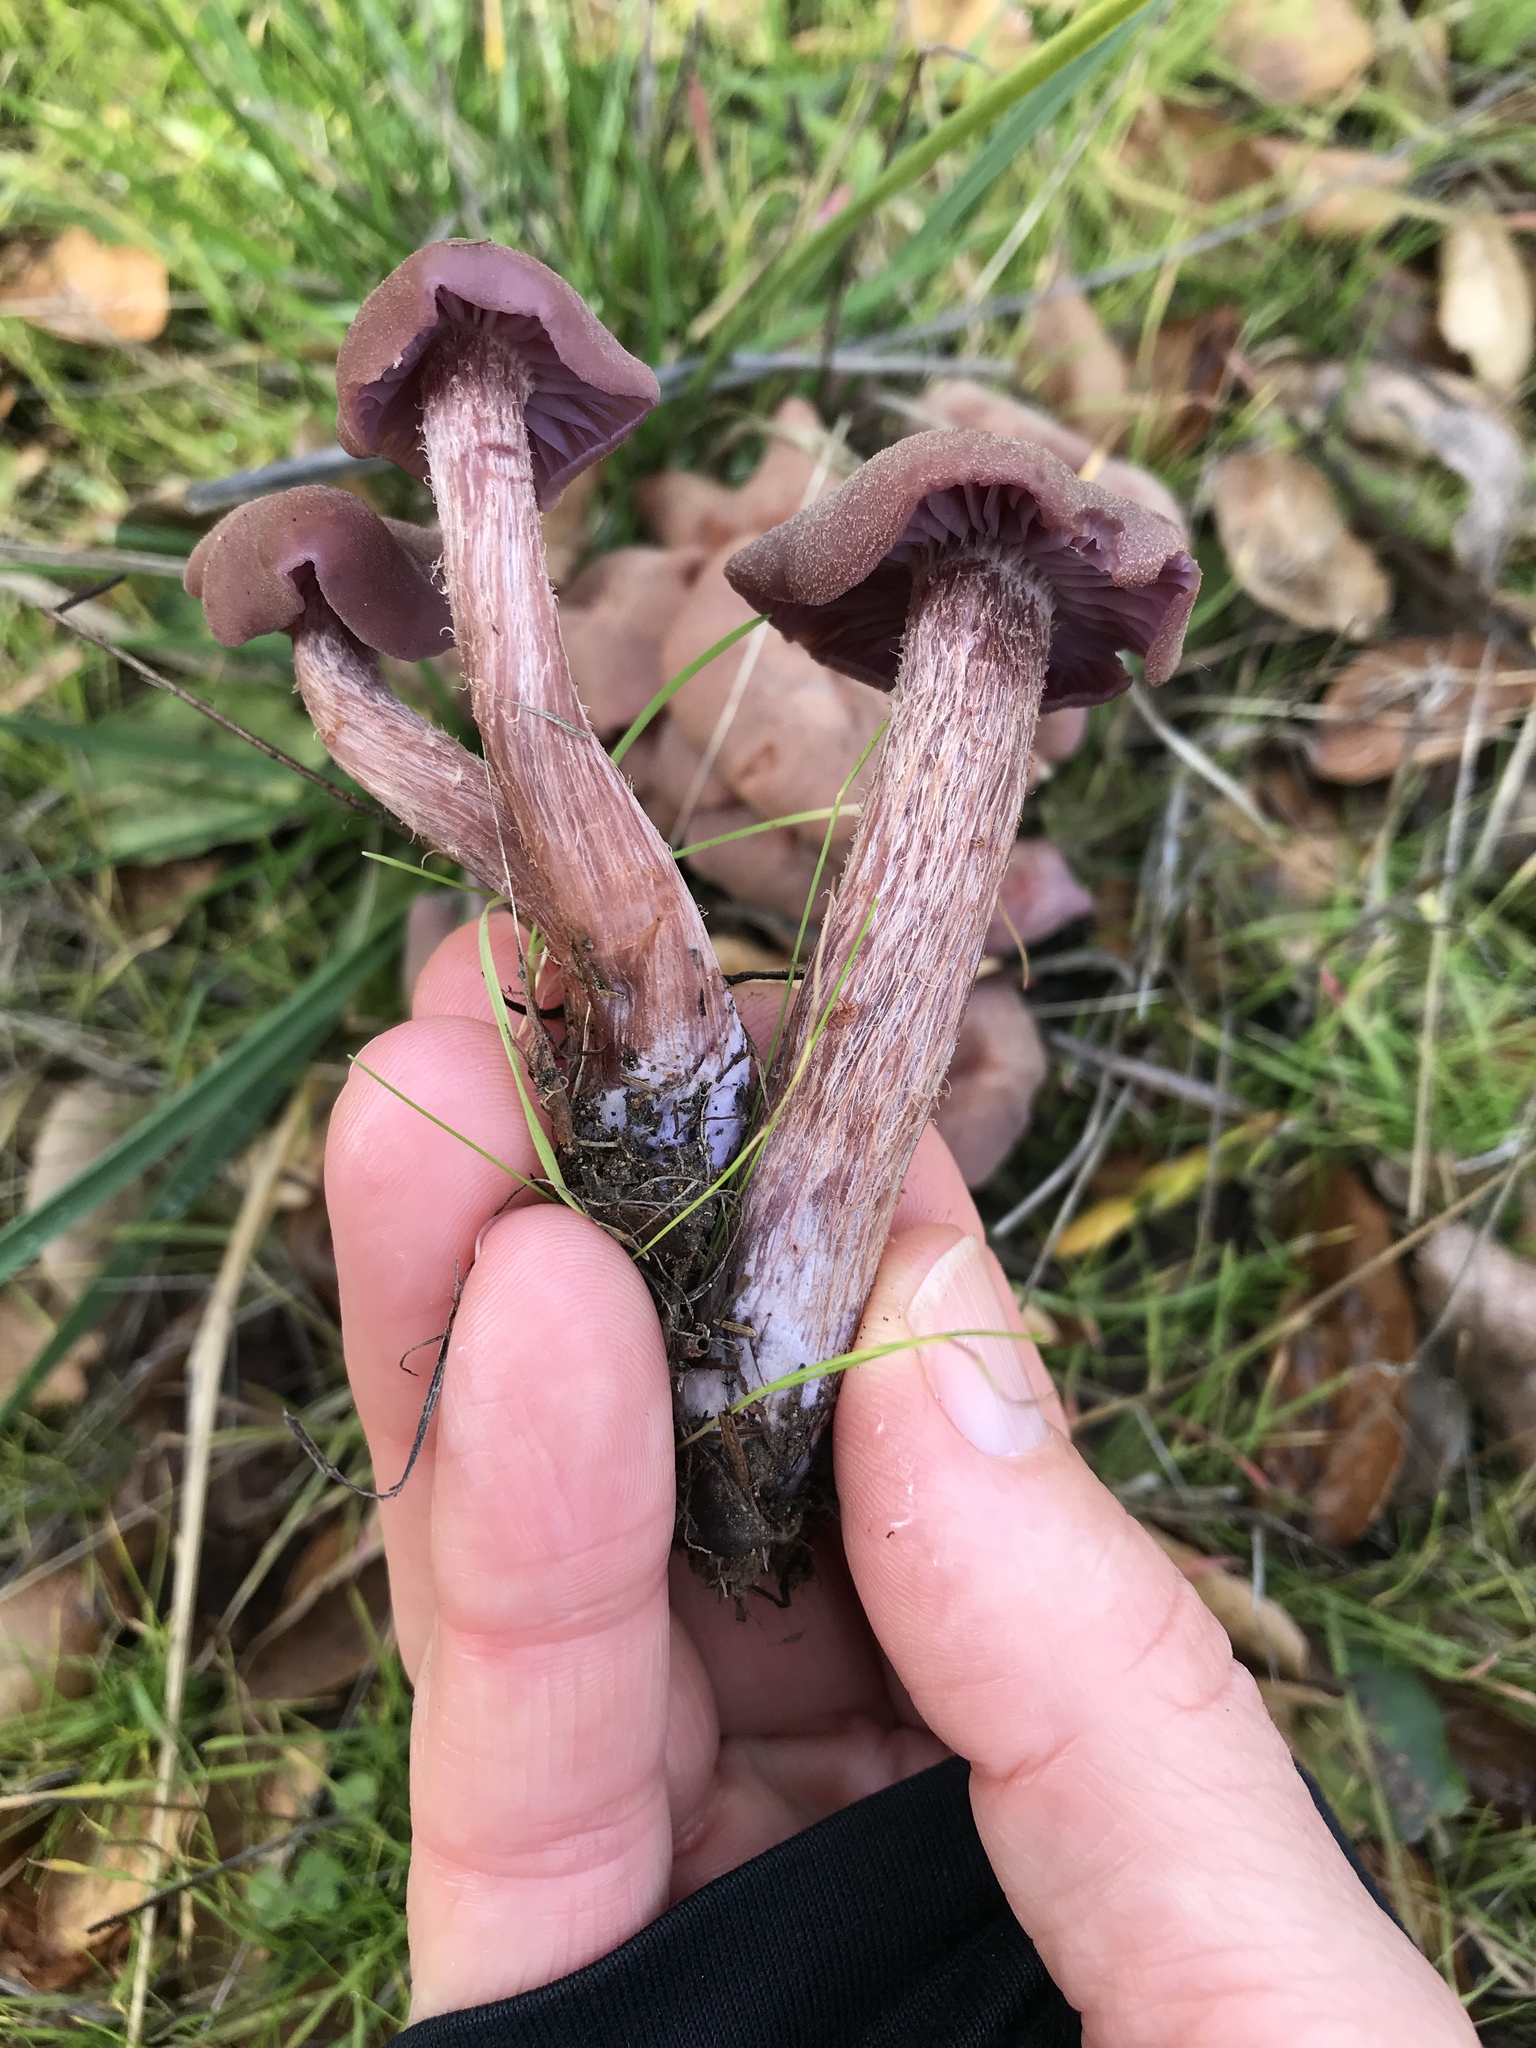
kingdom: Fungi
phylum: Basidiomycota
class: Agaricomycetes
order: Agaricales
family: Hydnangiaceae
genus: Laccaria
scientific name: Laccaria amethysteo-occidentalis
